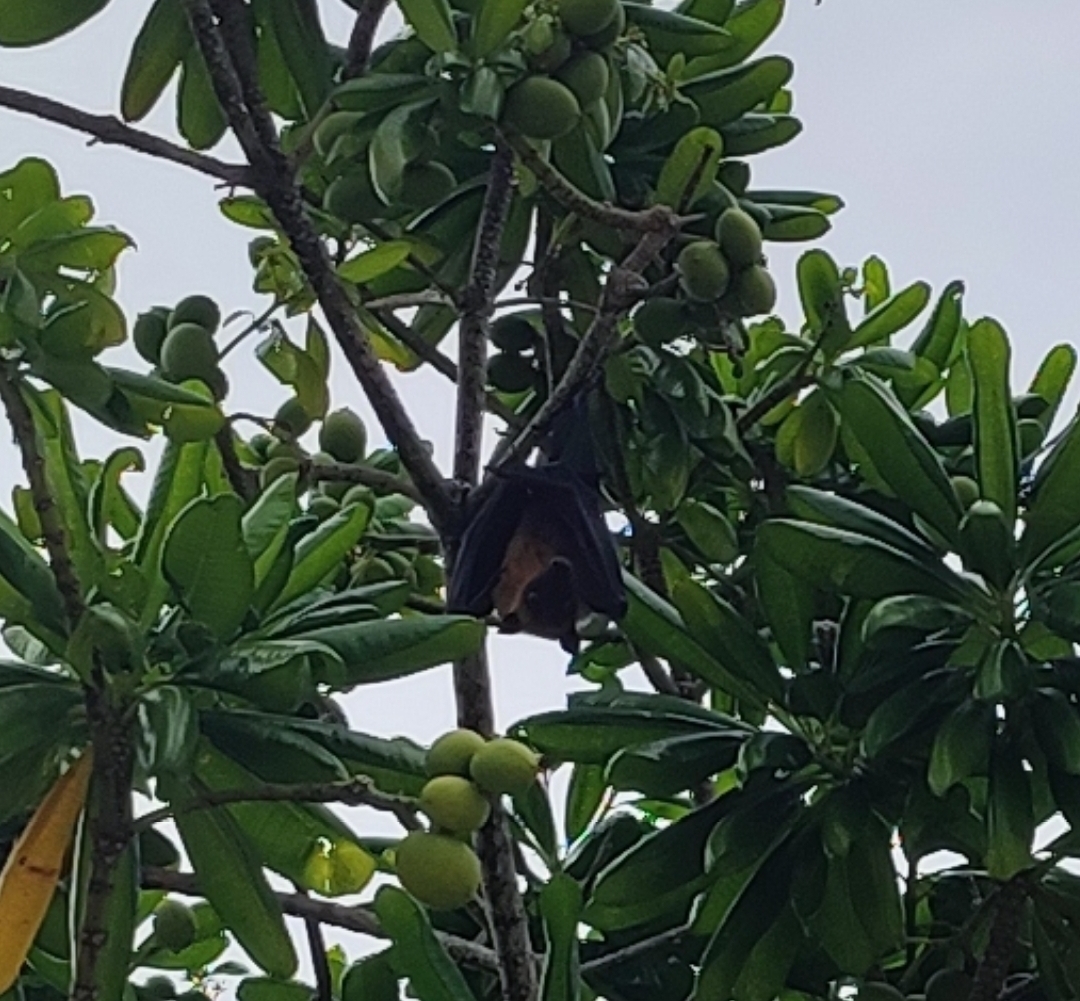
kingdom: Animalia
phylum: Chordata
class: Mammalia
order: Chiroptera
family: Pteropodidae
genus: Pteropus
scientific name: Pteropus vampyrus
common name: Large flying fox
